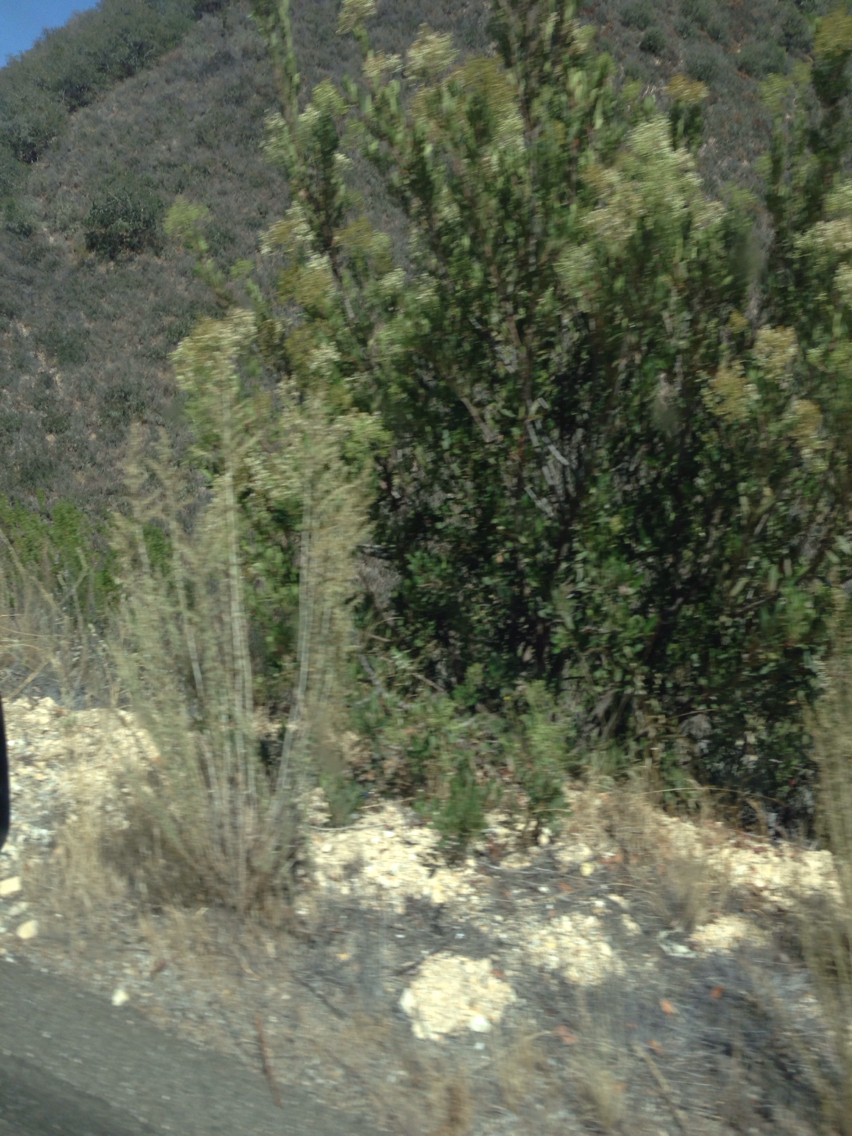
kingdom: Plantae
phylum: Tracheophyta
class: Magnoliopsida
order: Rosales
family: Rosaceae
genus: Heteromeles
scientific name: Heteromeles arbutifolia
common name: California-holly
